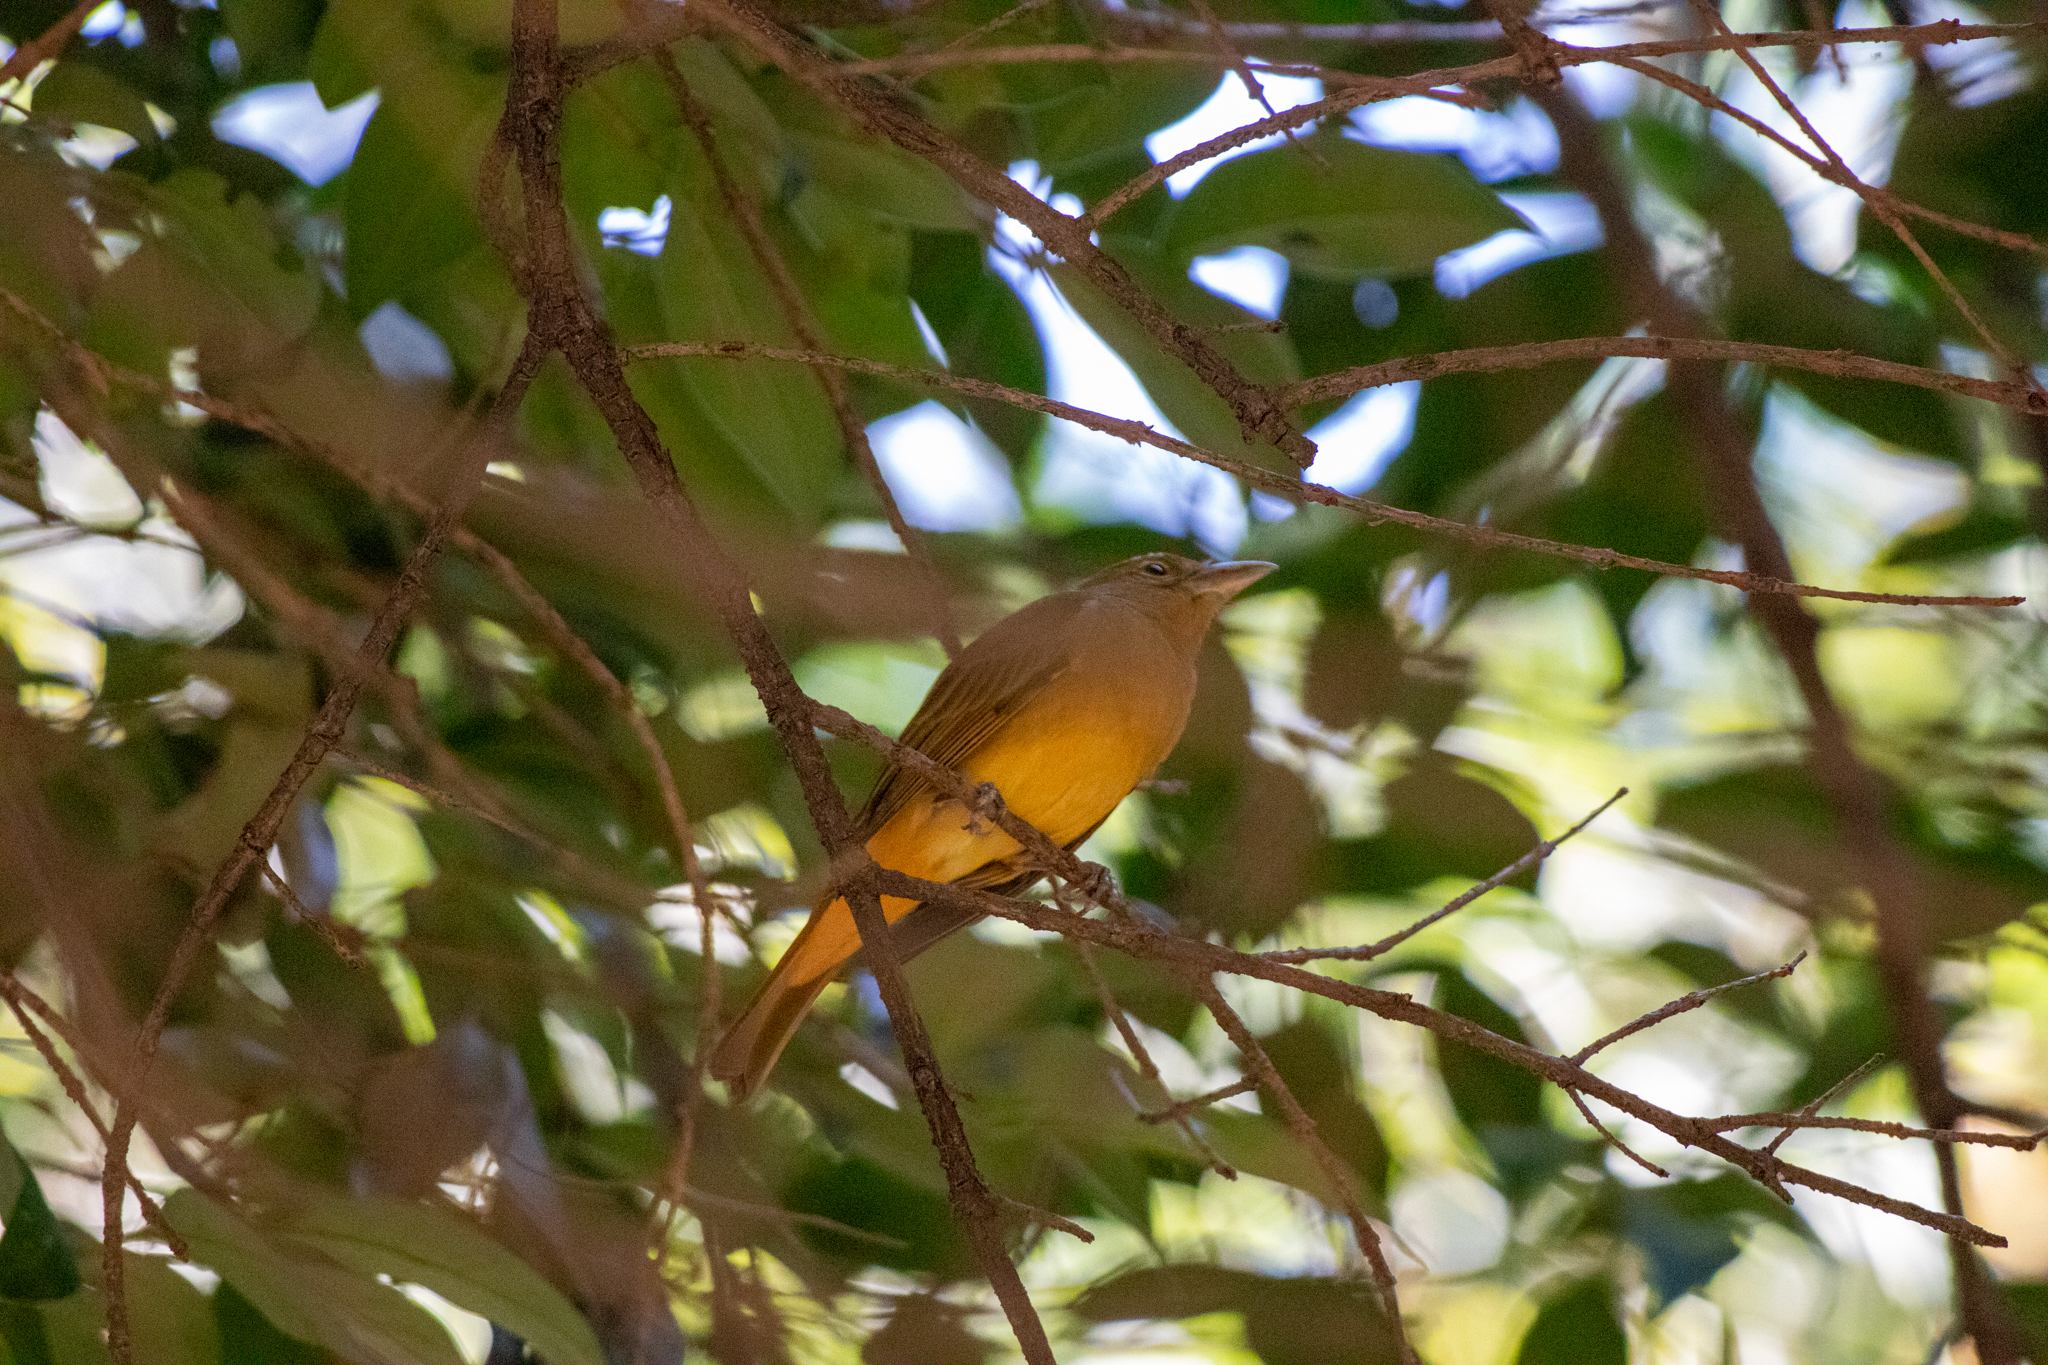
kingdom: Animalia
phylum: Chordata
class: Aves
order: Passeriformes
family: Cardinalidae
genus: Piranga
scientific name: Piranga rubra
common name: Summer tanager
